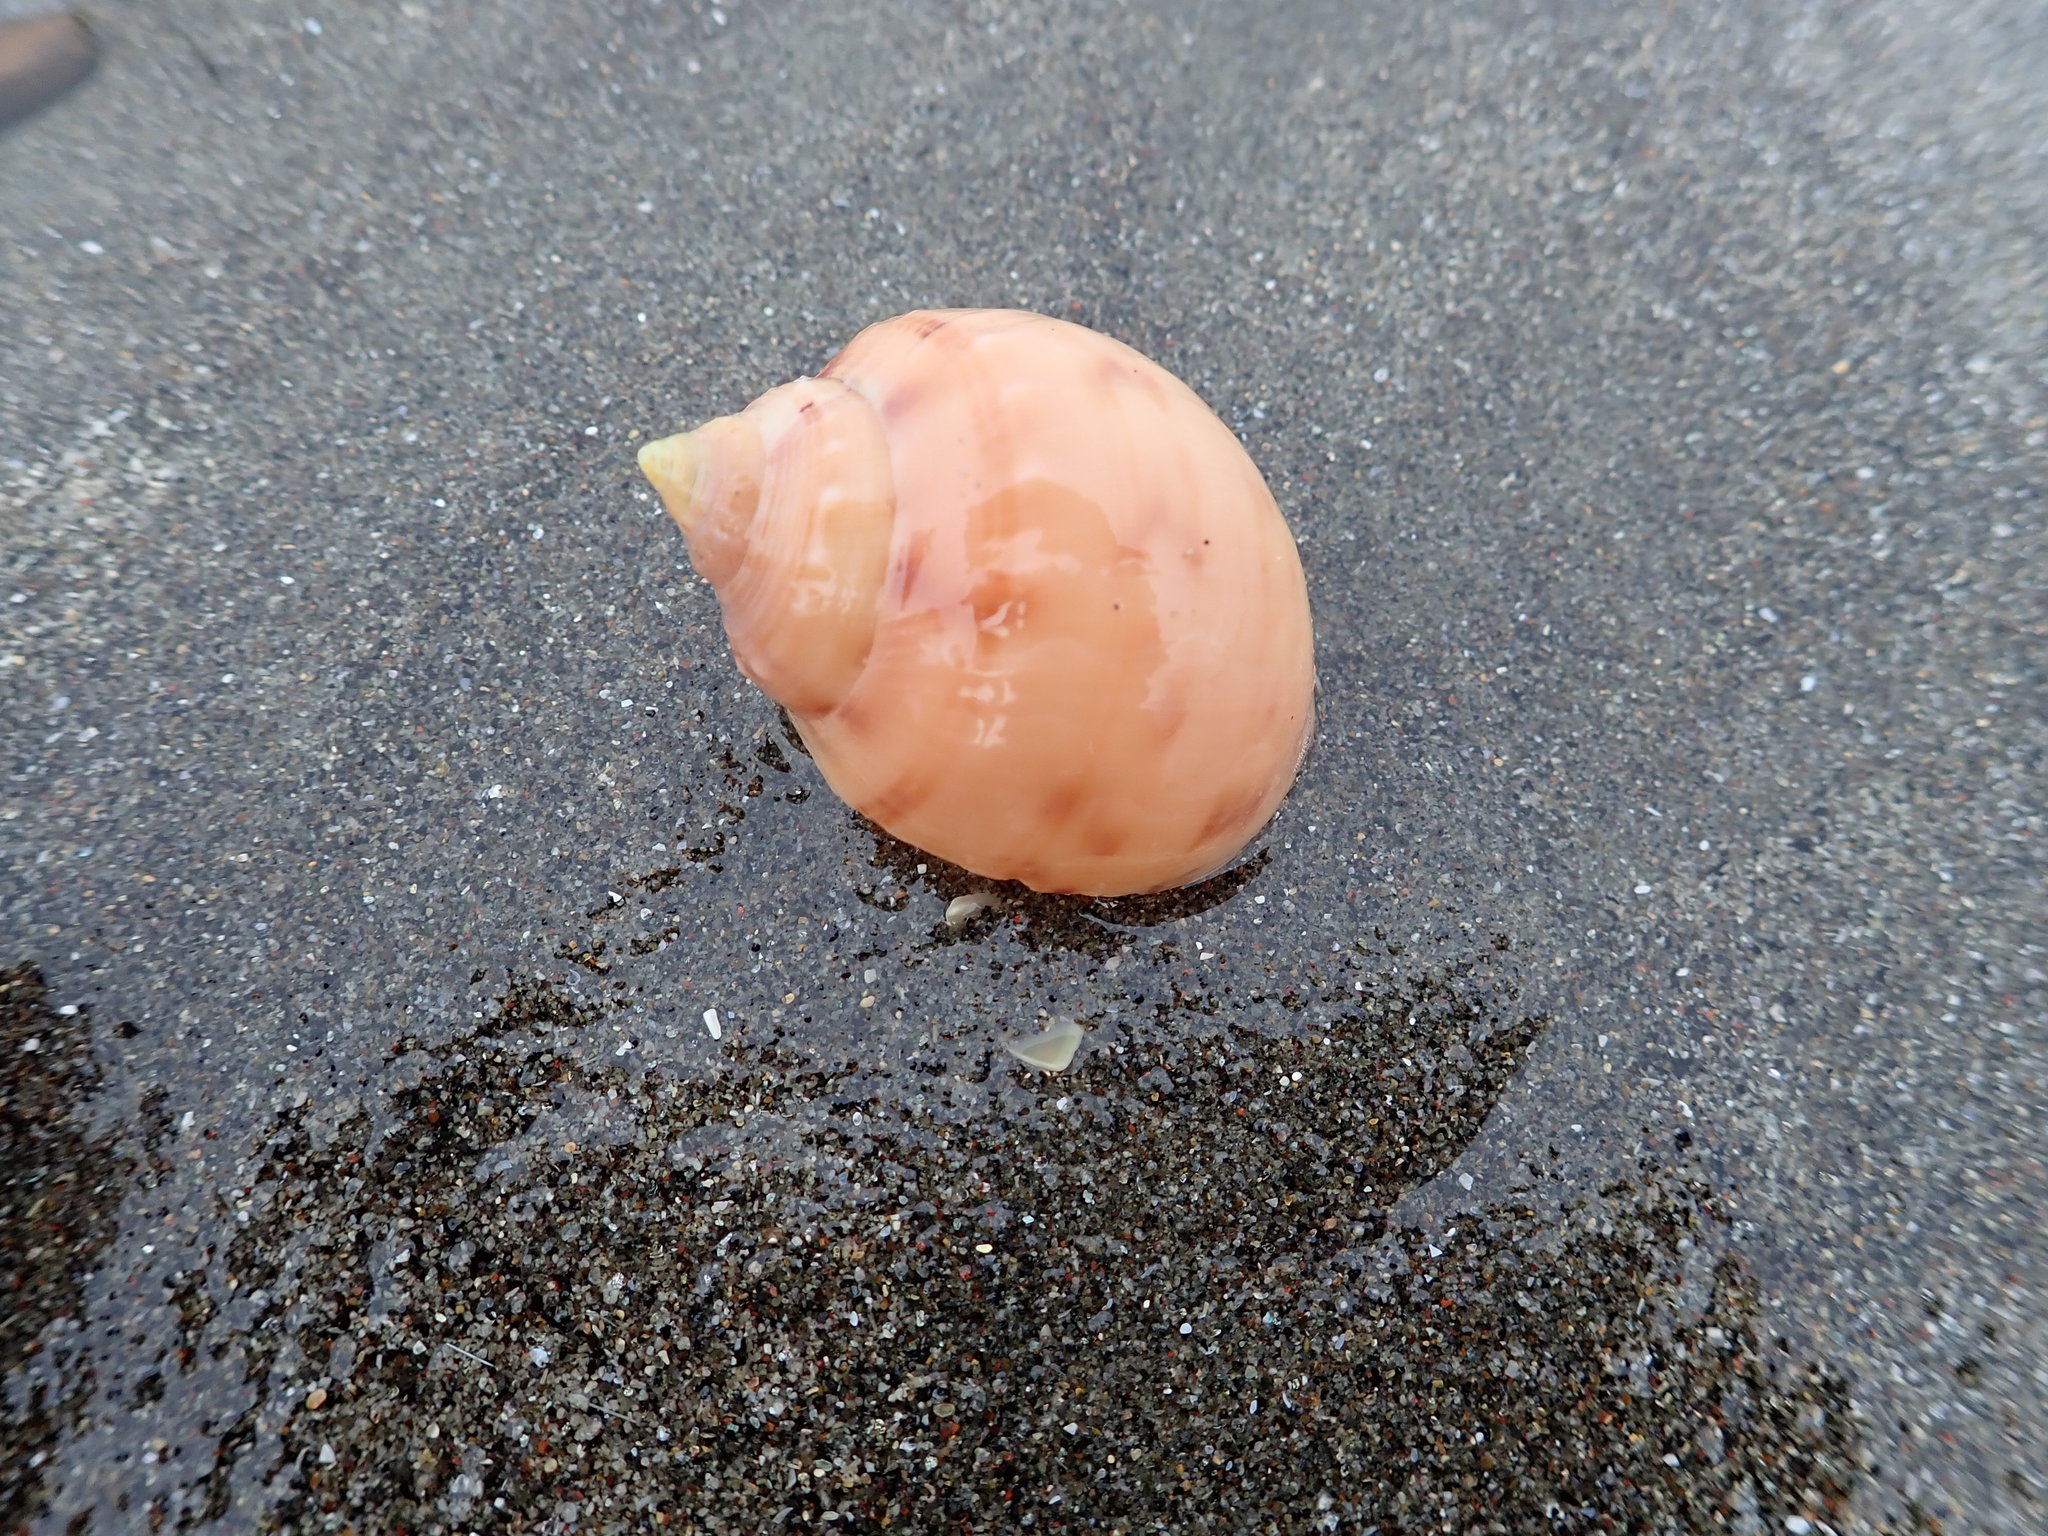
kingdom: Animalia
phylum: Mollusca
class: Gastropoda
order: Littorinimorpha
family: Cassidae
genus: Semicassis
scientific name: Semicassis pyrum
